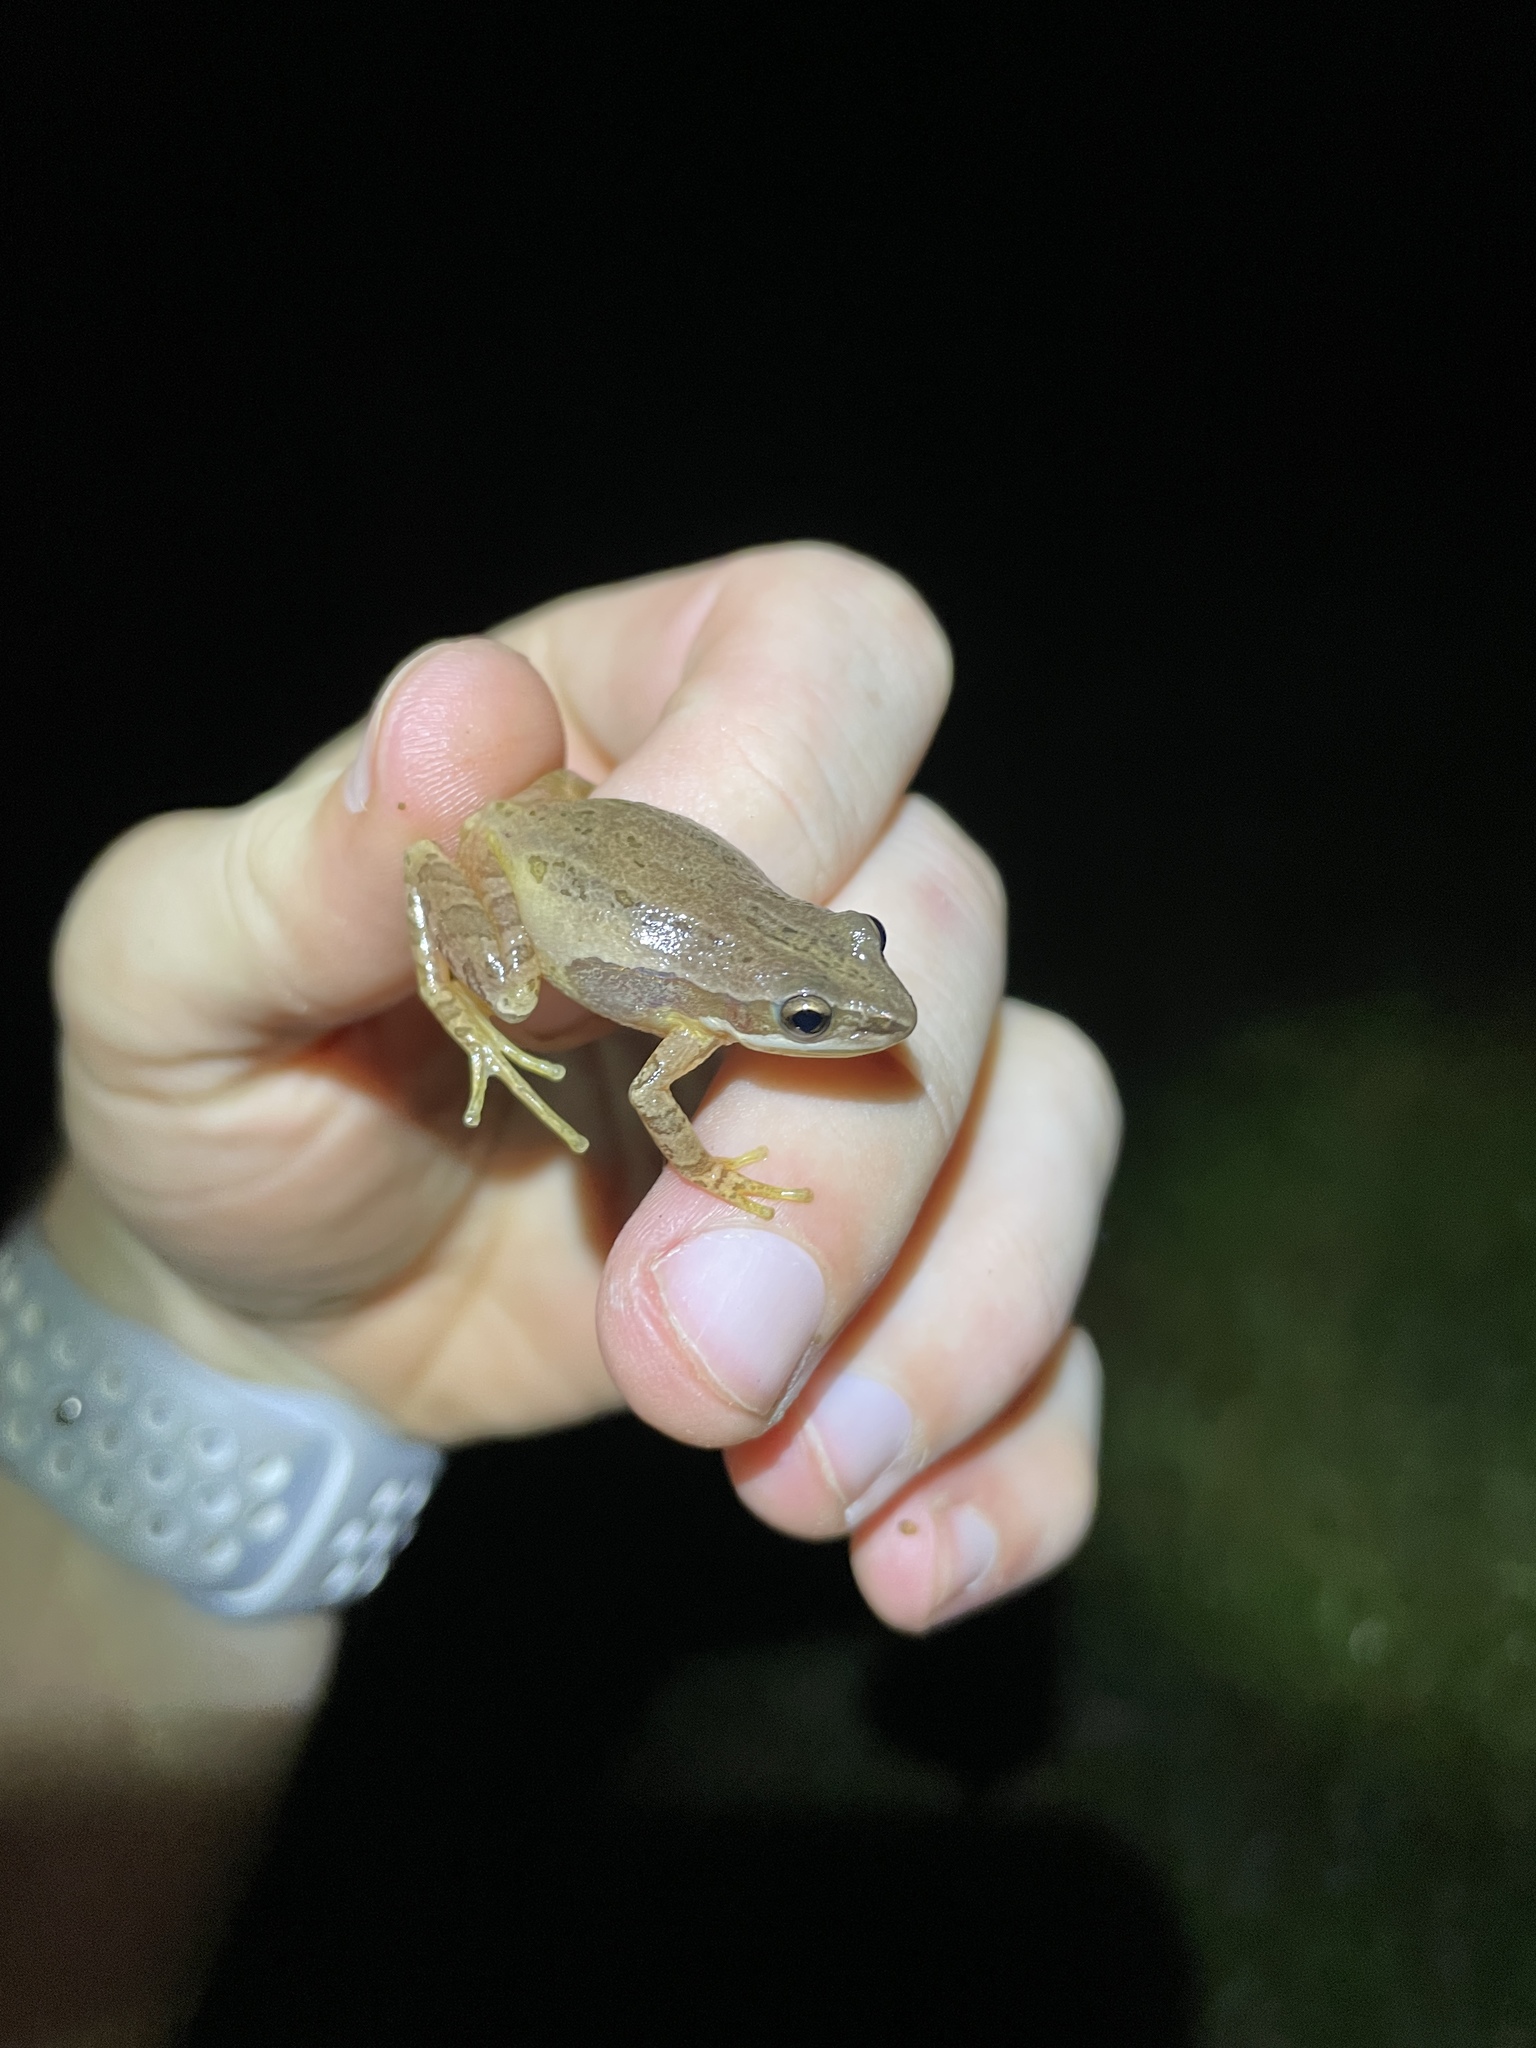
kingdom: Animalia
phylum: Chordata
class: Amphibia
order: Anura
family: Hylidae
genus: Pseudacris
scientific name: Pseudacris fouquettei
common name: Cajun chorus frog
